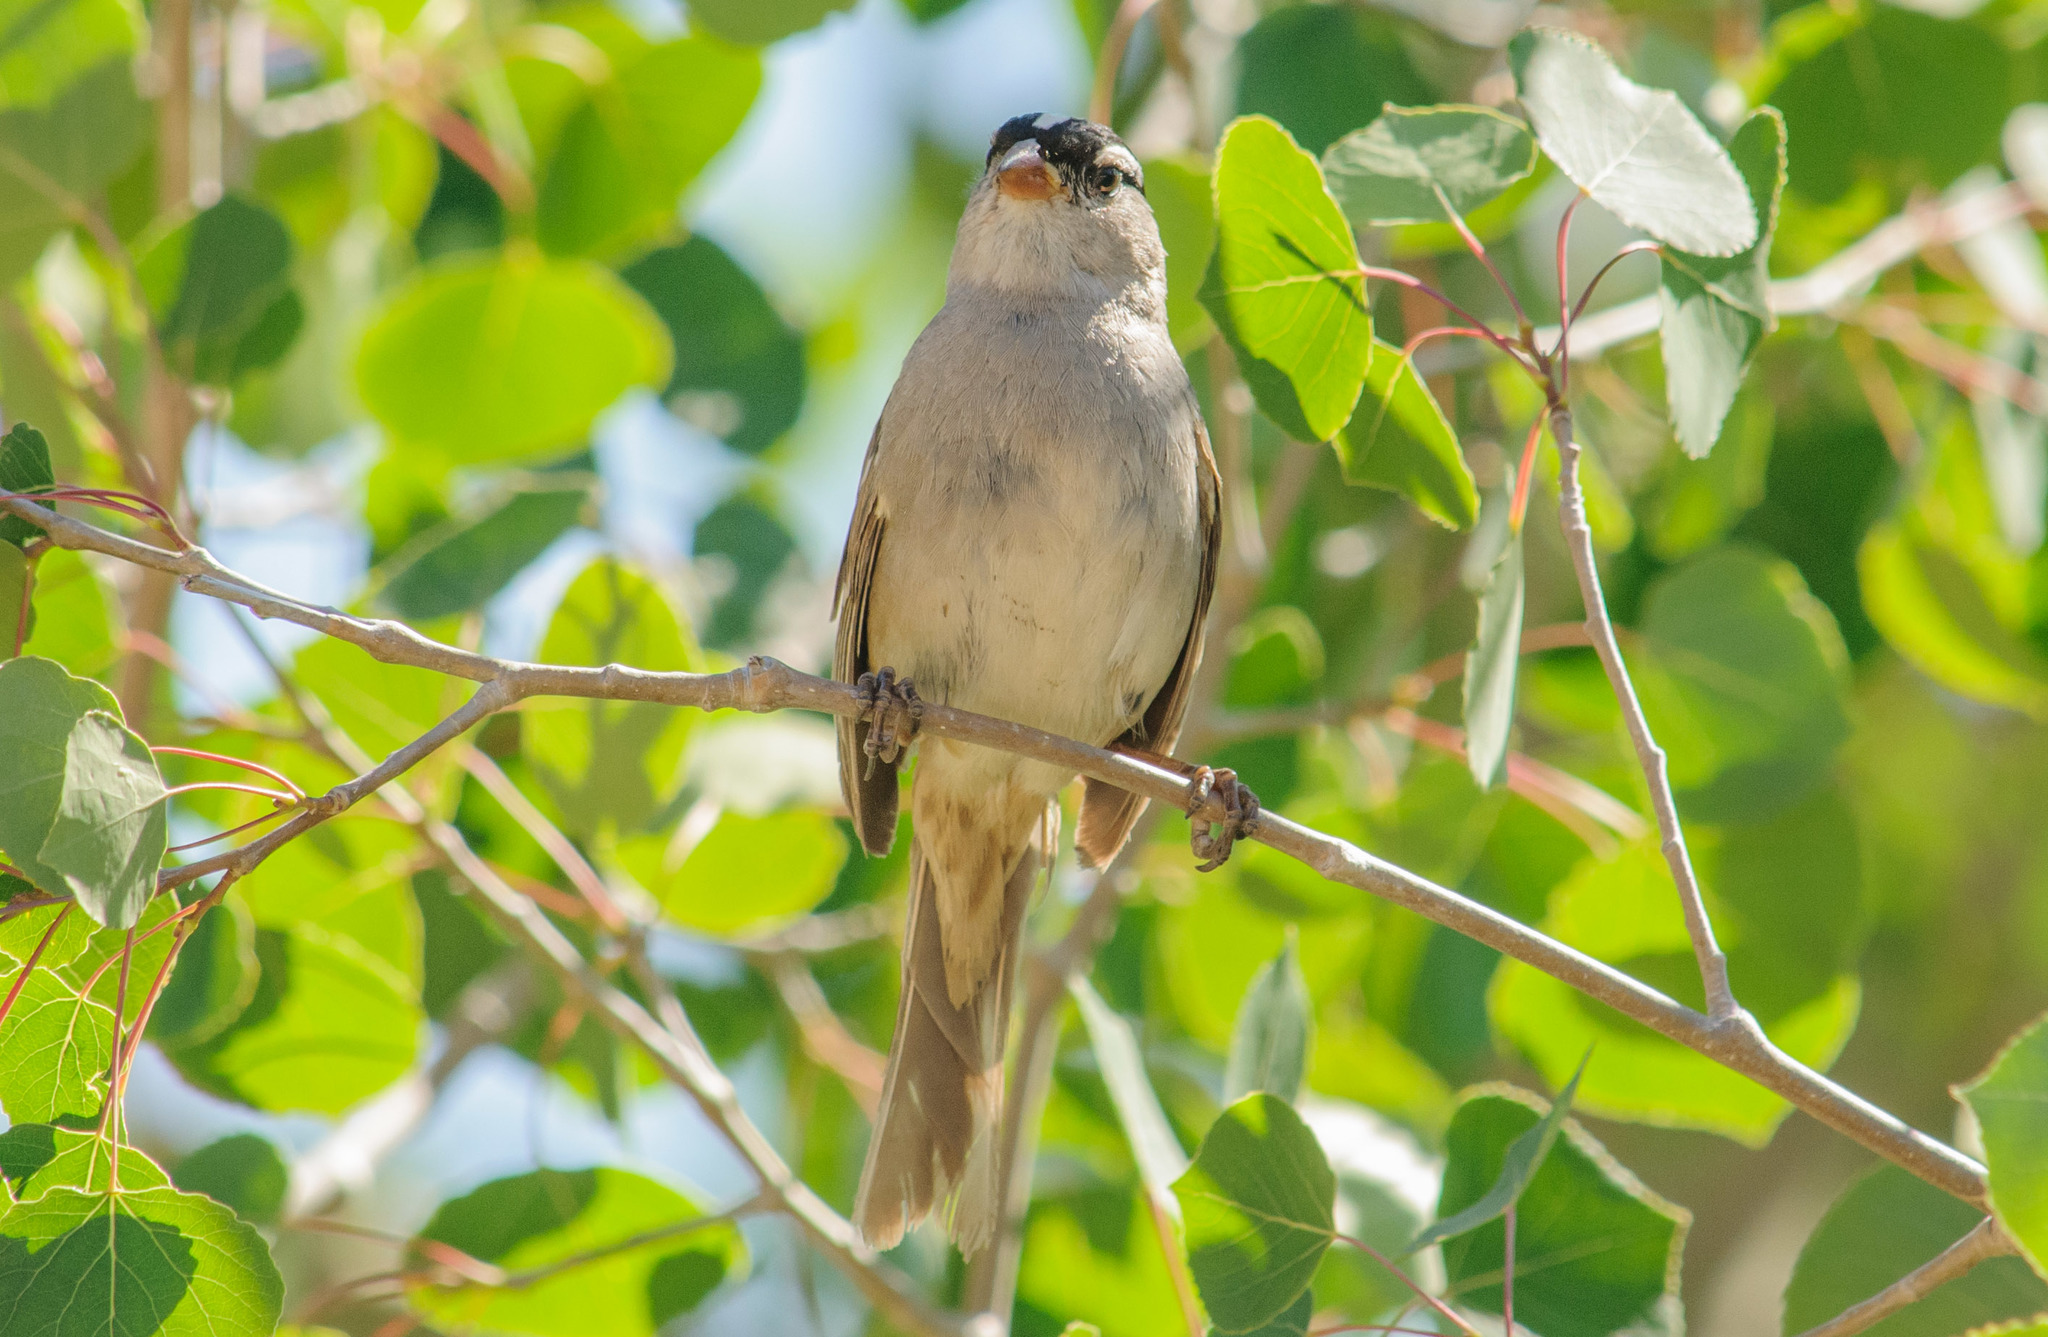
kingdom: Animalia
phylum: Chordata
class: Aves
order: Passeriformes
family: Passerellidae
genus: Zonotrichia
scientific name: Zonotrichia leucophrys
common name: White-crowned sparrow
